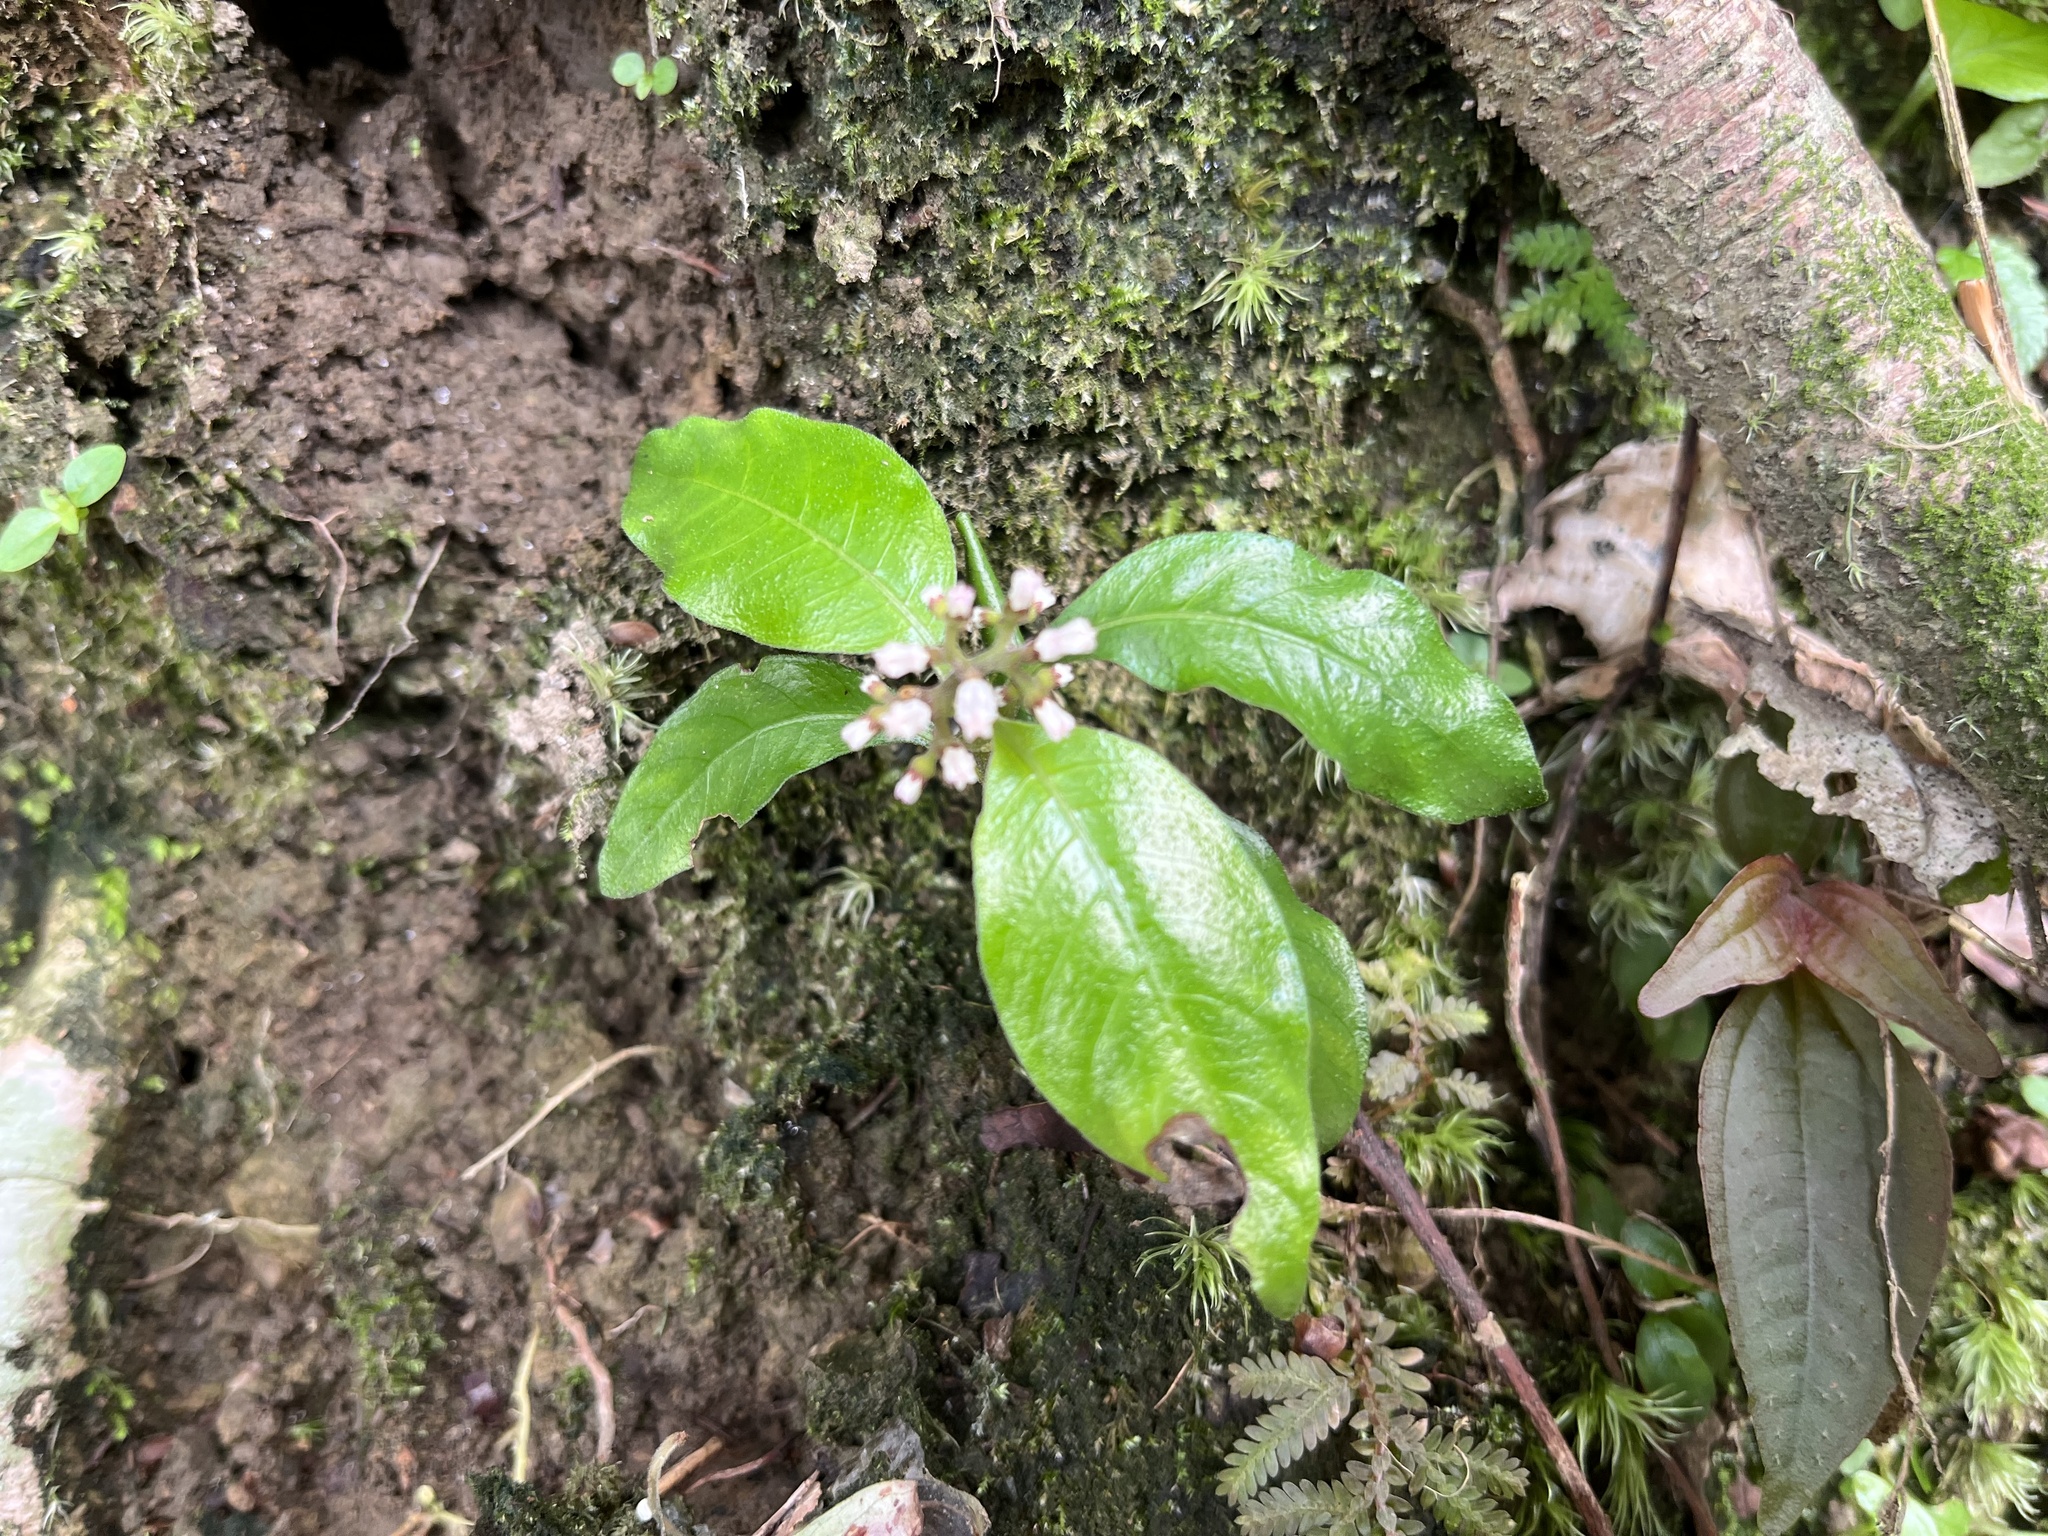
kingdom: Plantae
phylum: Tracheophyta
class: Magnoliopsida
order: Gentianales
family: Rubiaceae
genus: Ophiorrhiza
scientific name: Ophiorrhiza pumila
